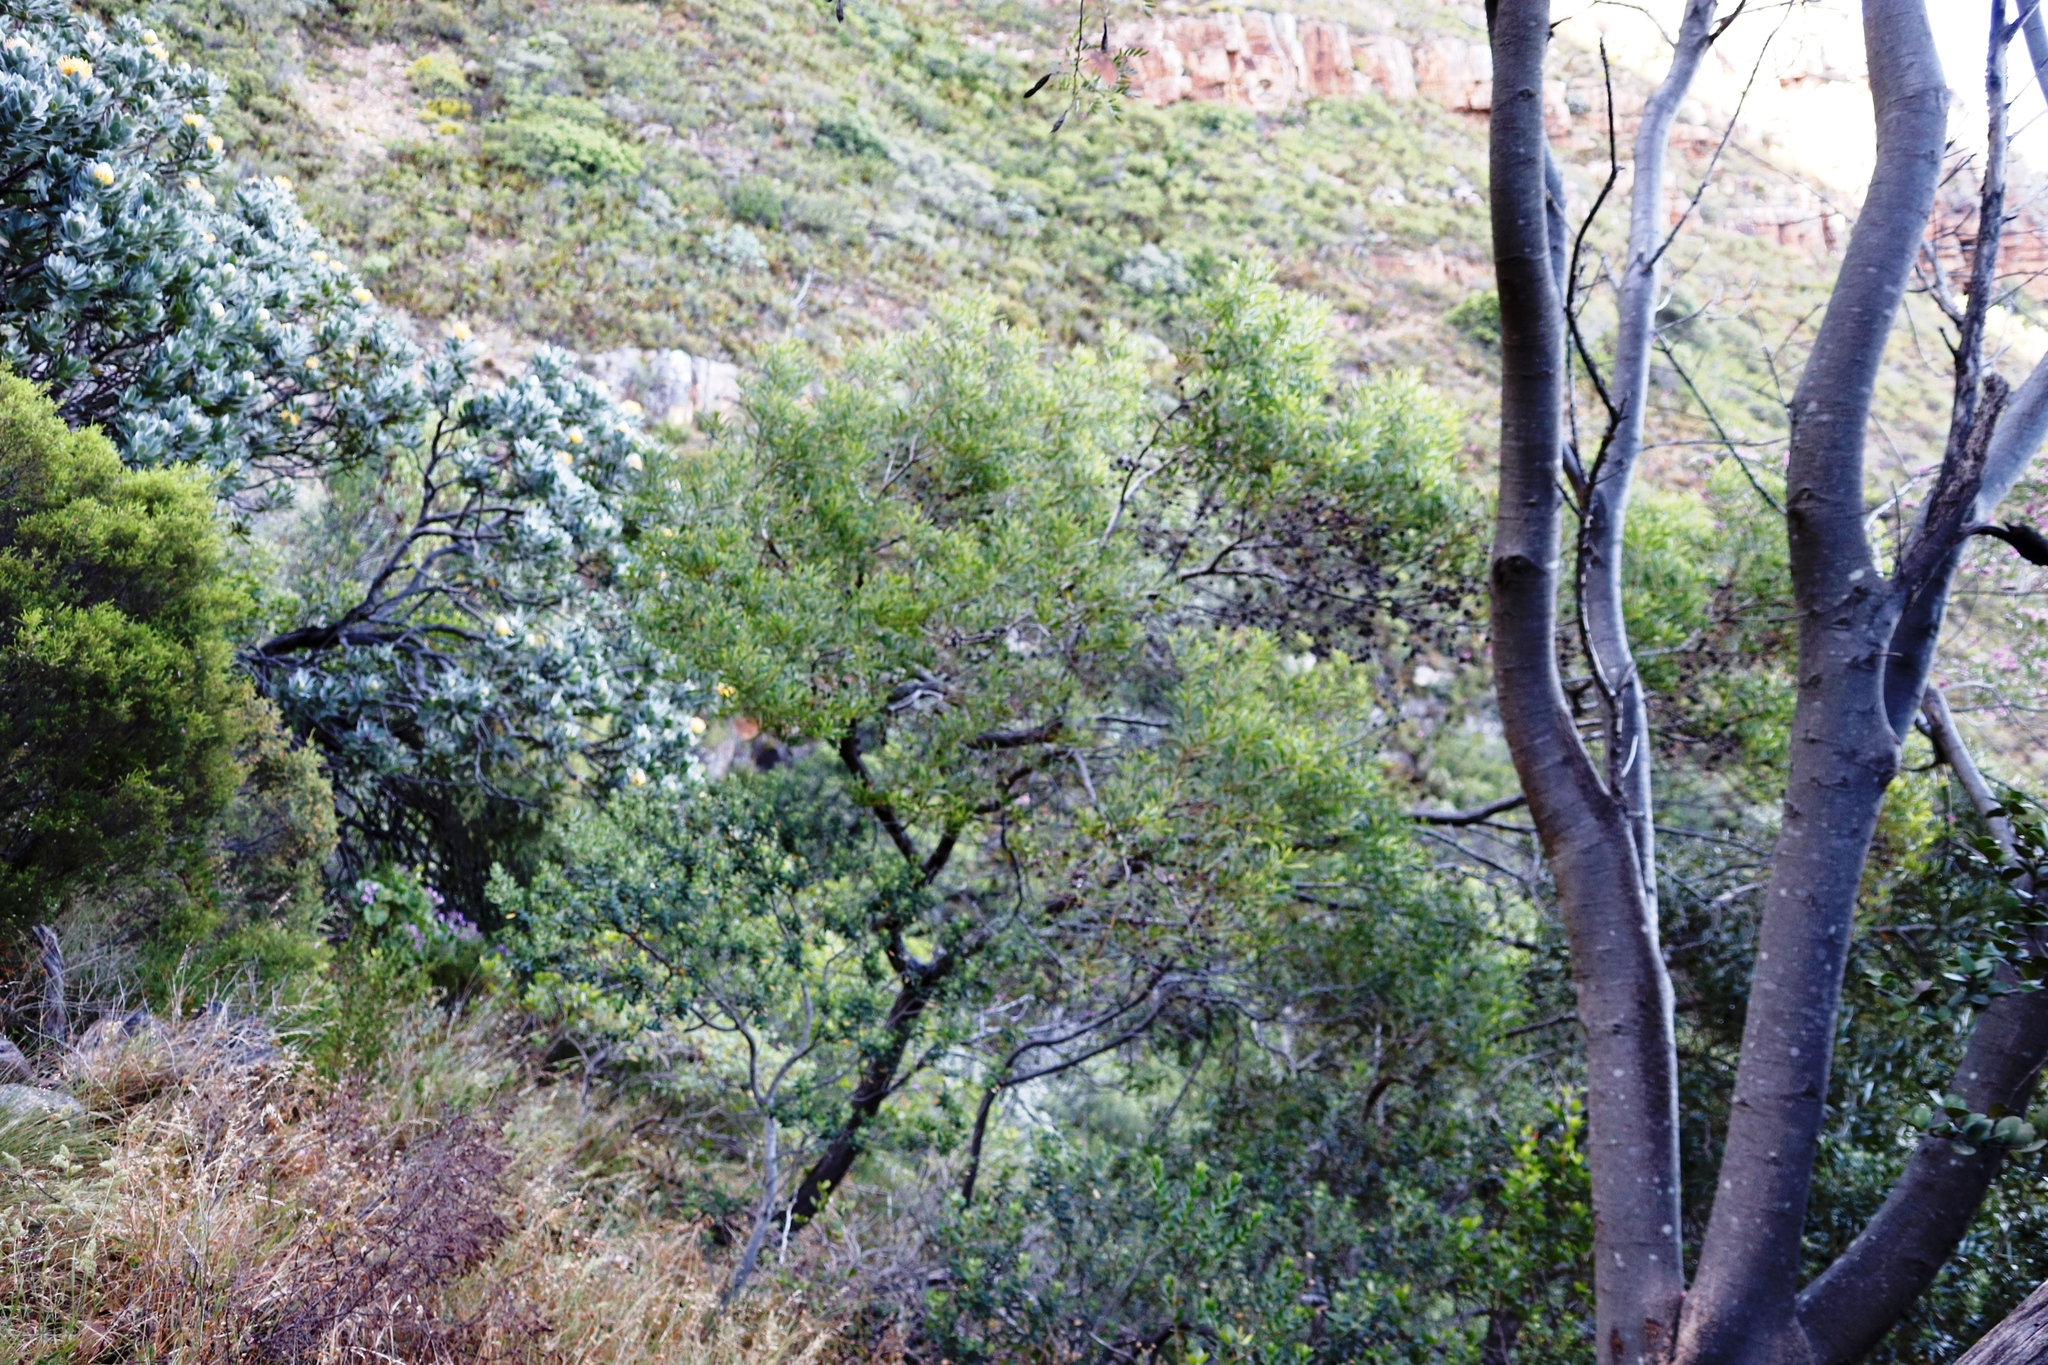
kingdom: Animalia
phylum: Arthropoda
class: Insecta
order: Diptera
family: Cecidomyiidae
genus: Dasineura
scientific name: Dasineura dielsi
